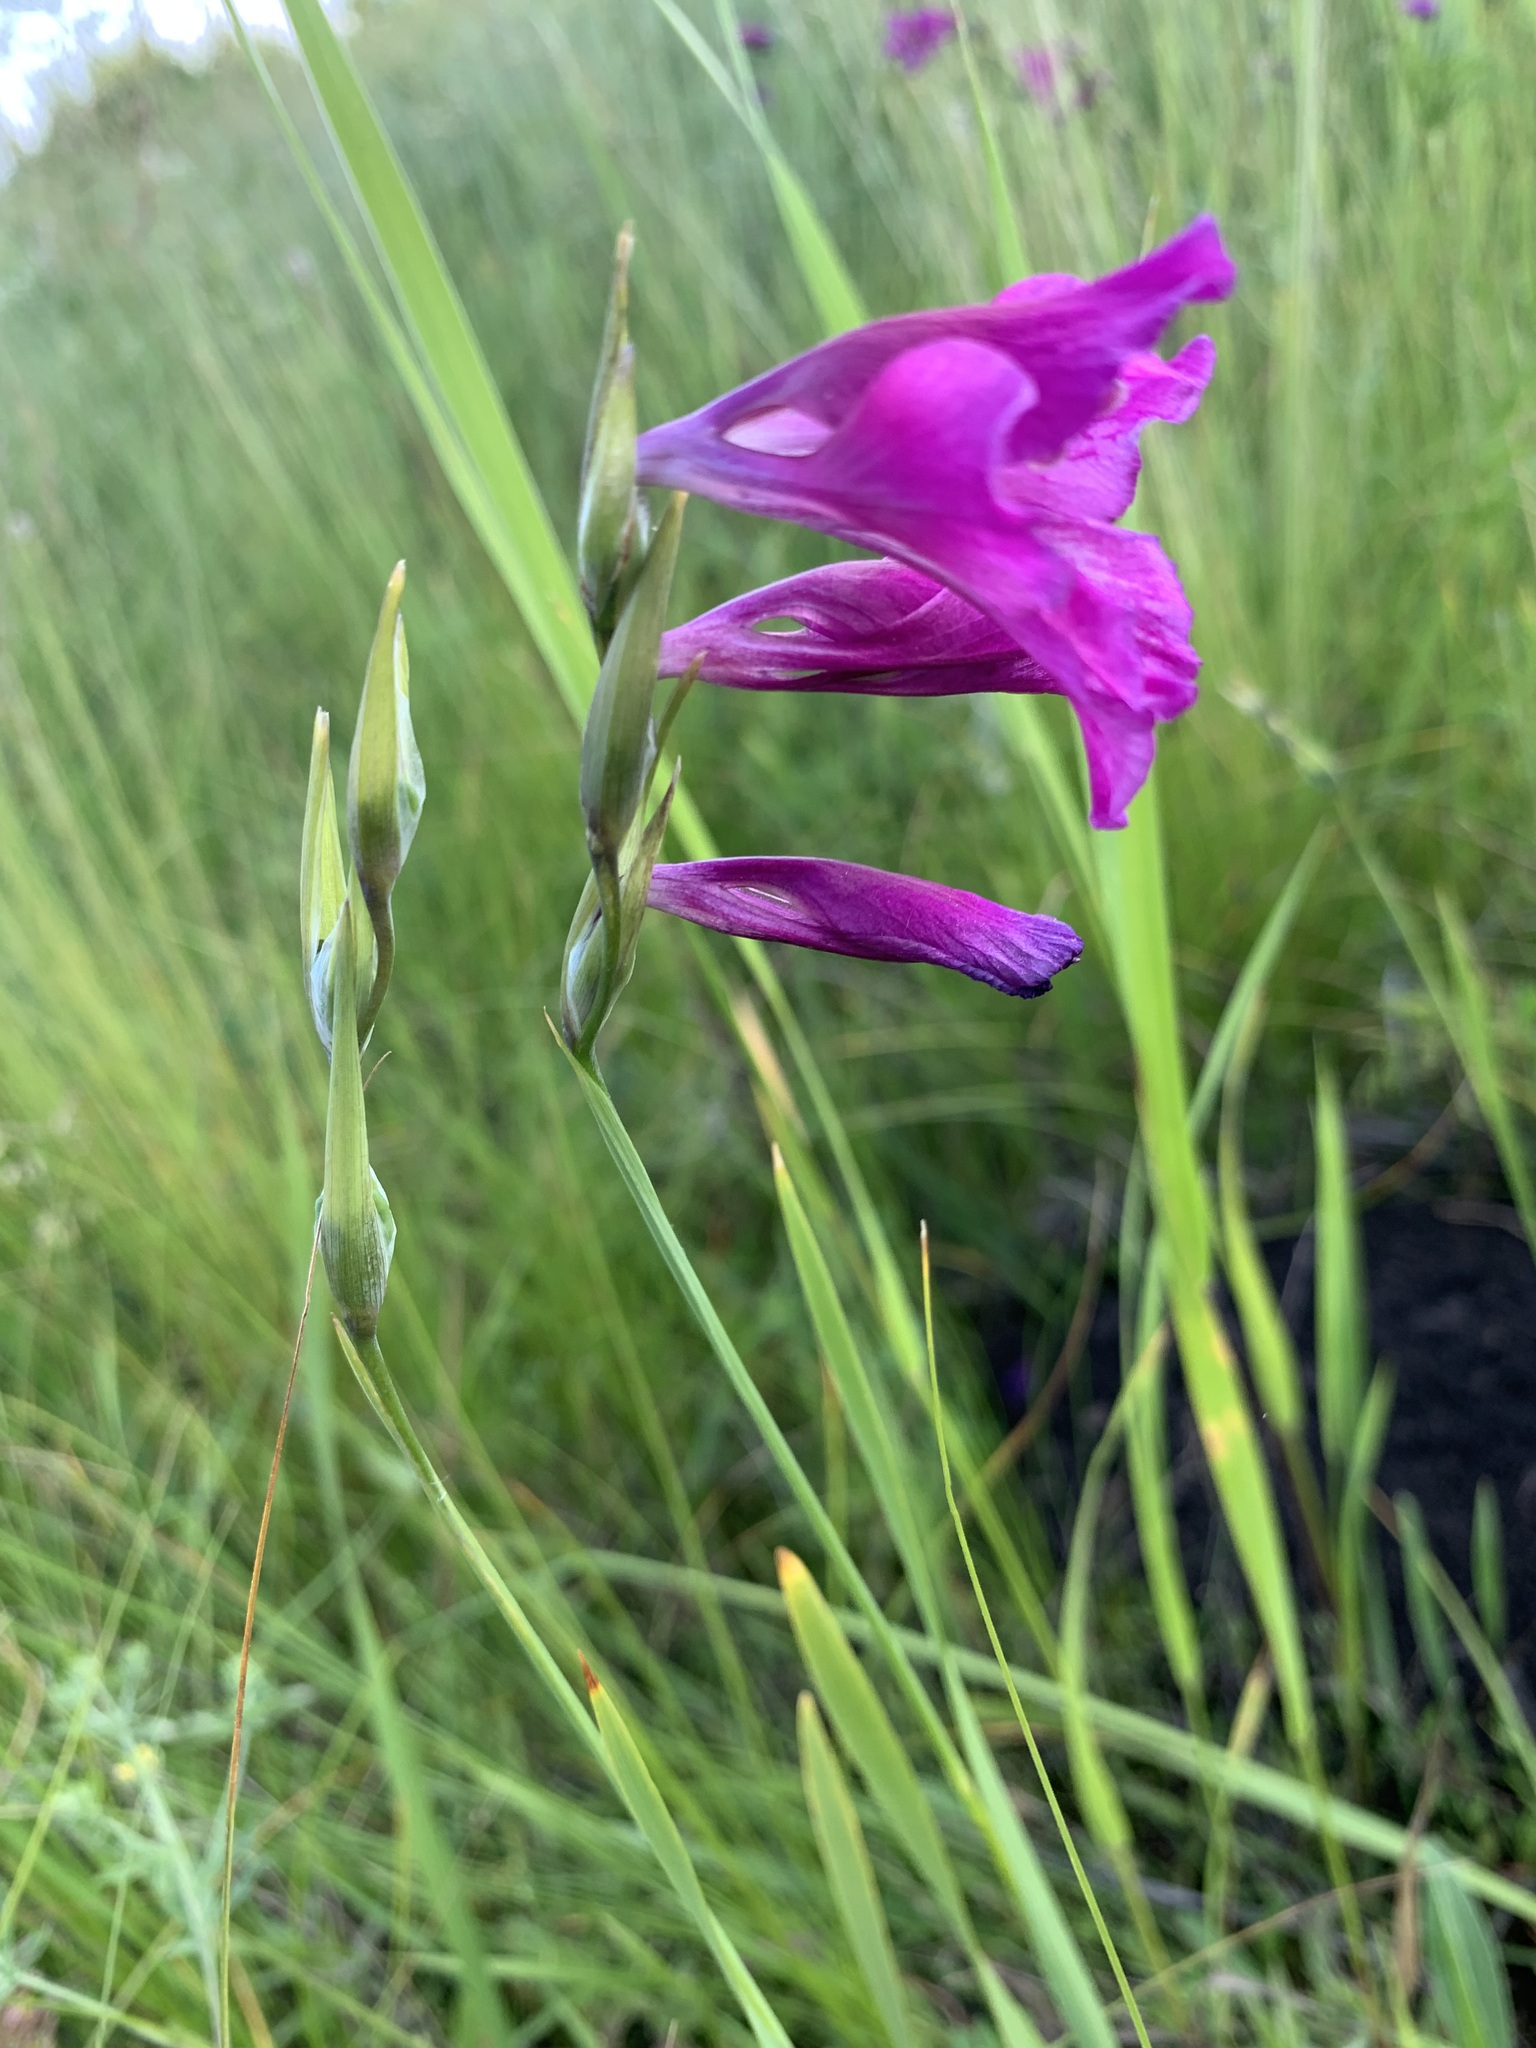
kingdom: Plantae
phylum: Tracheophyta
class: Liliopsida
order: Asparagales
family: Iridaceae
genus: Gladiolus
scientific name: Gladiolus tenuis
